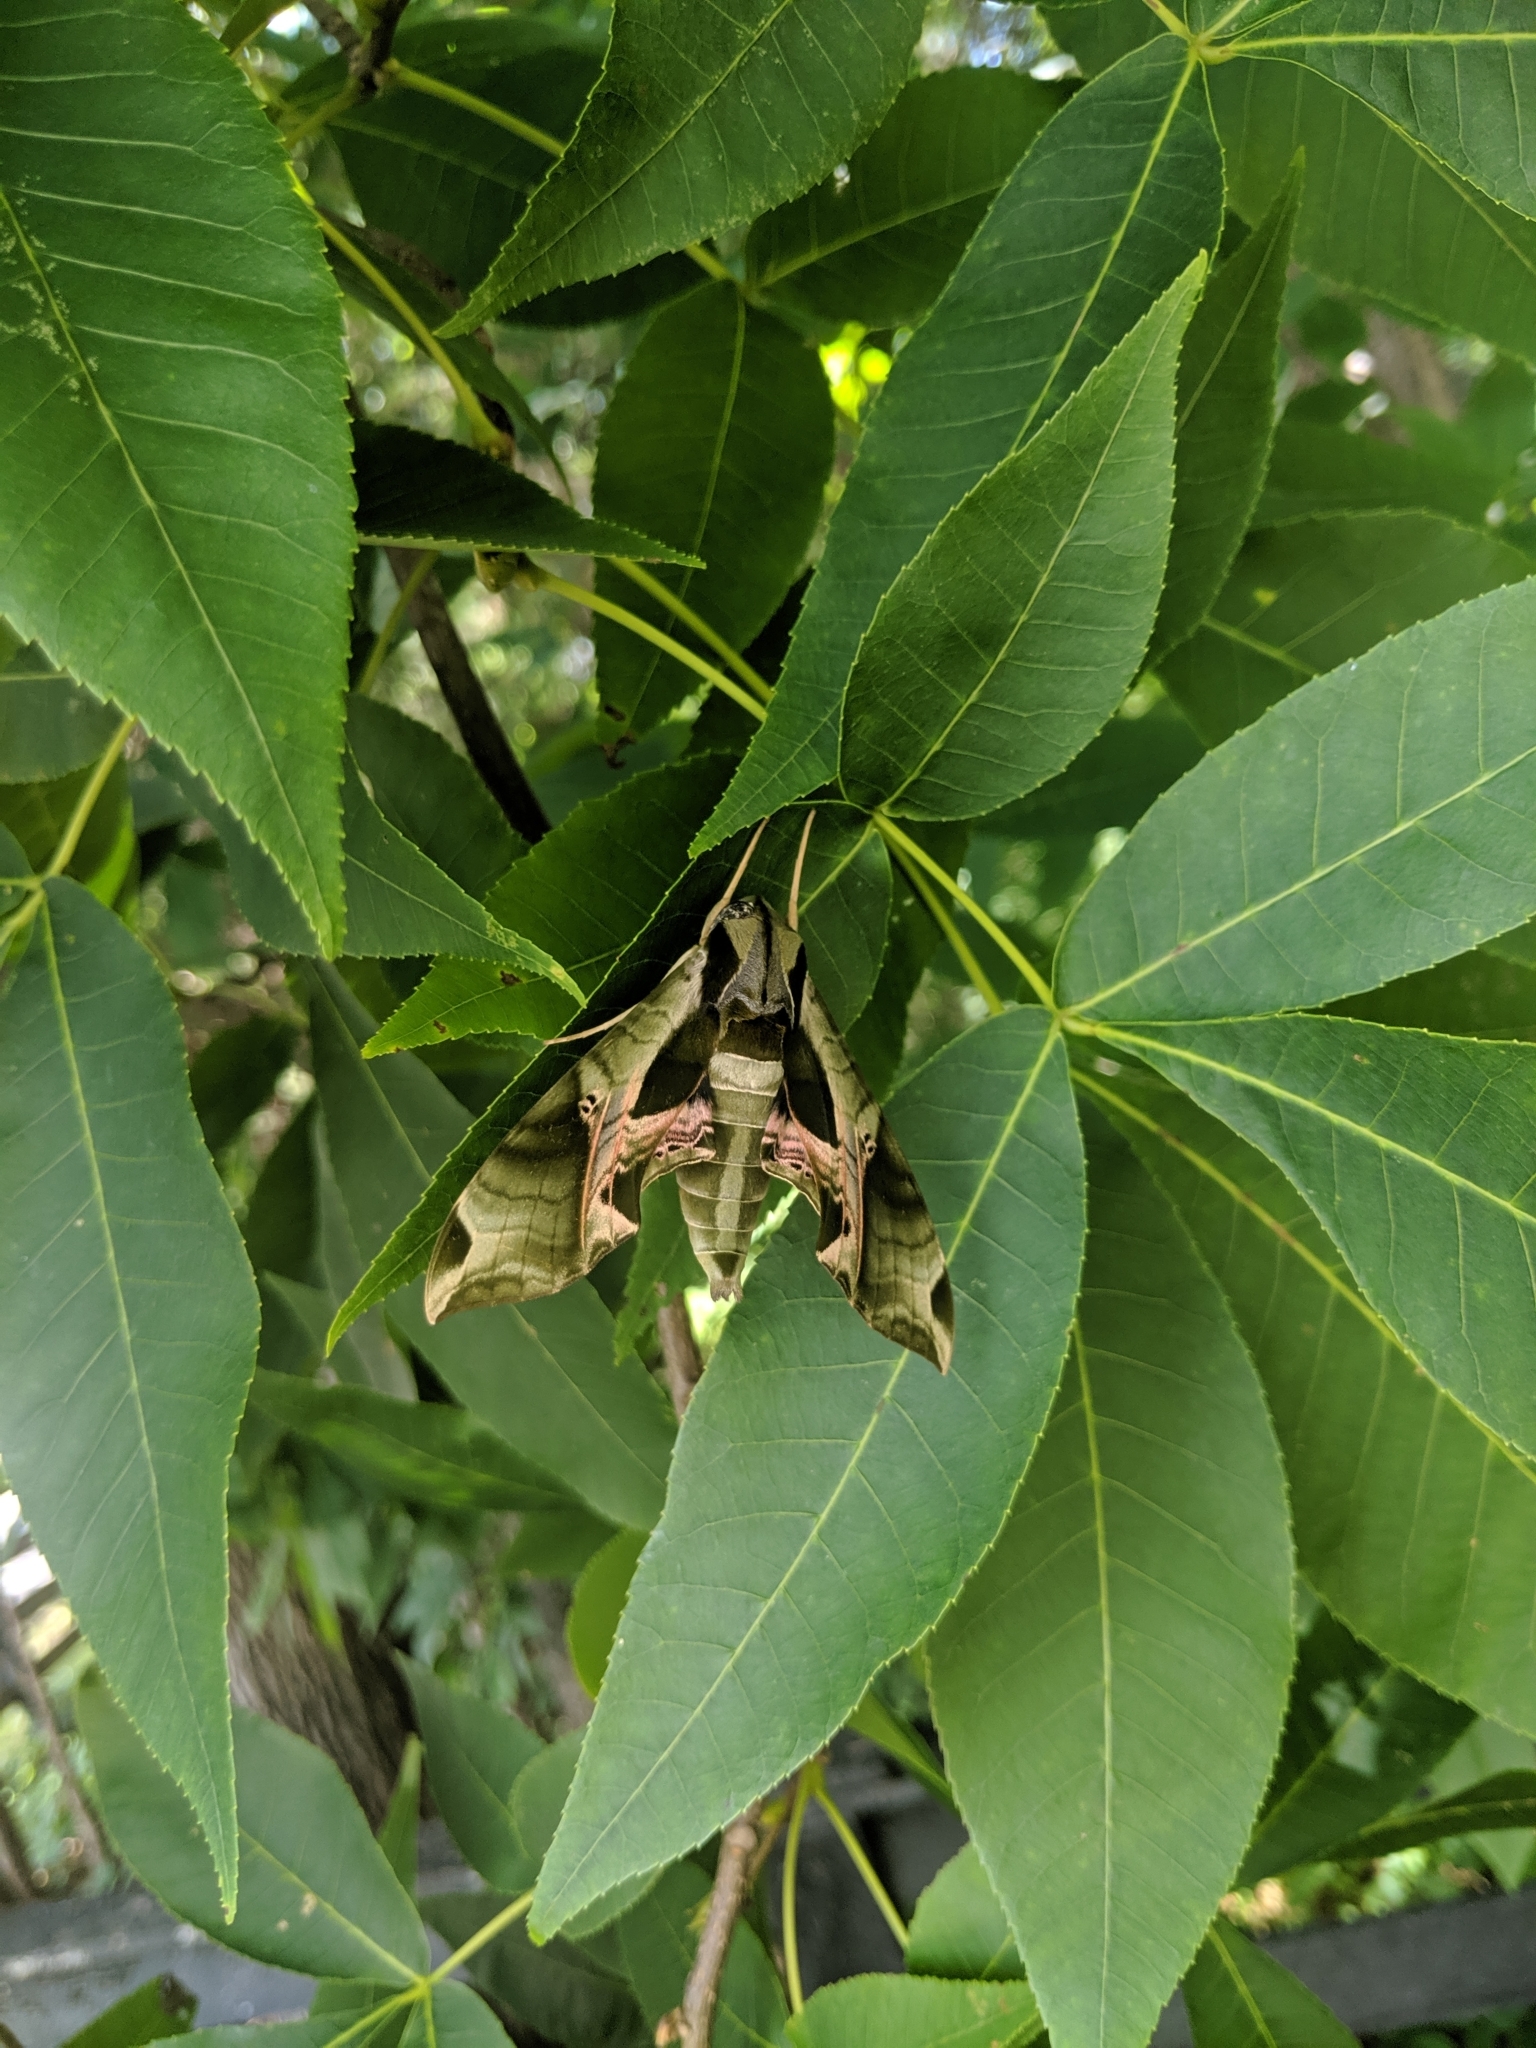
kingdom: Animalia
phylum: Arthropoda
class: Insecta
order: Lepidoptera
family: Sphingidae
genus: Eumorpha
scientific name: Eumorpha pandorus
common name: Pandora sphinx
